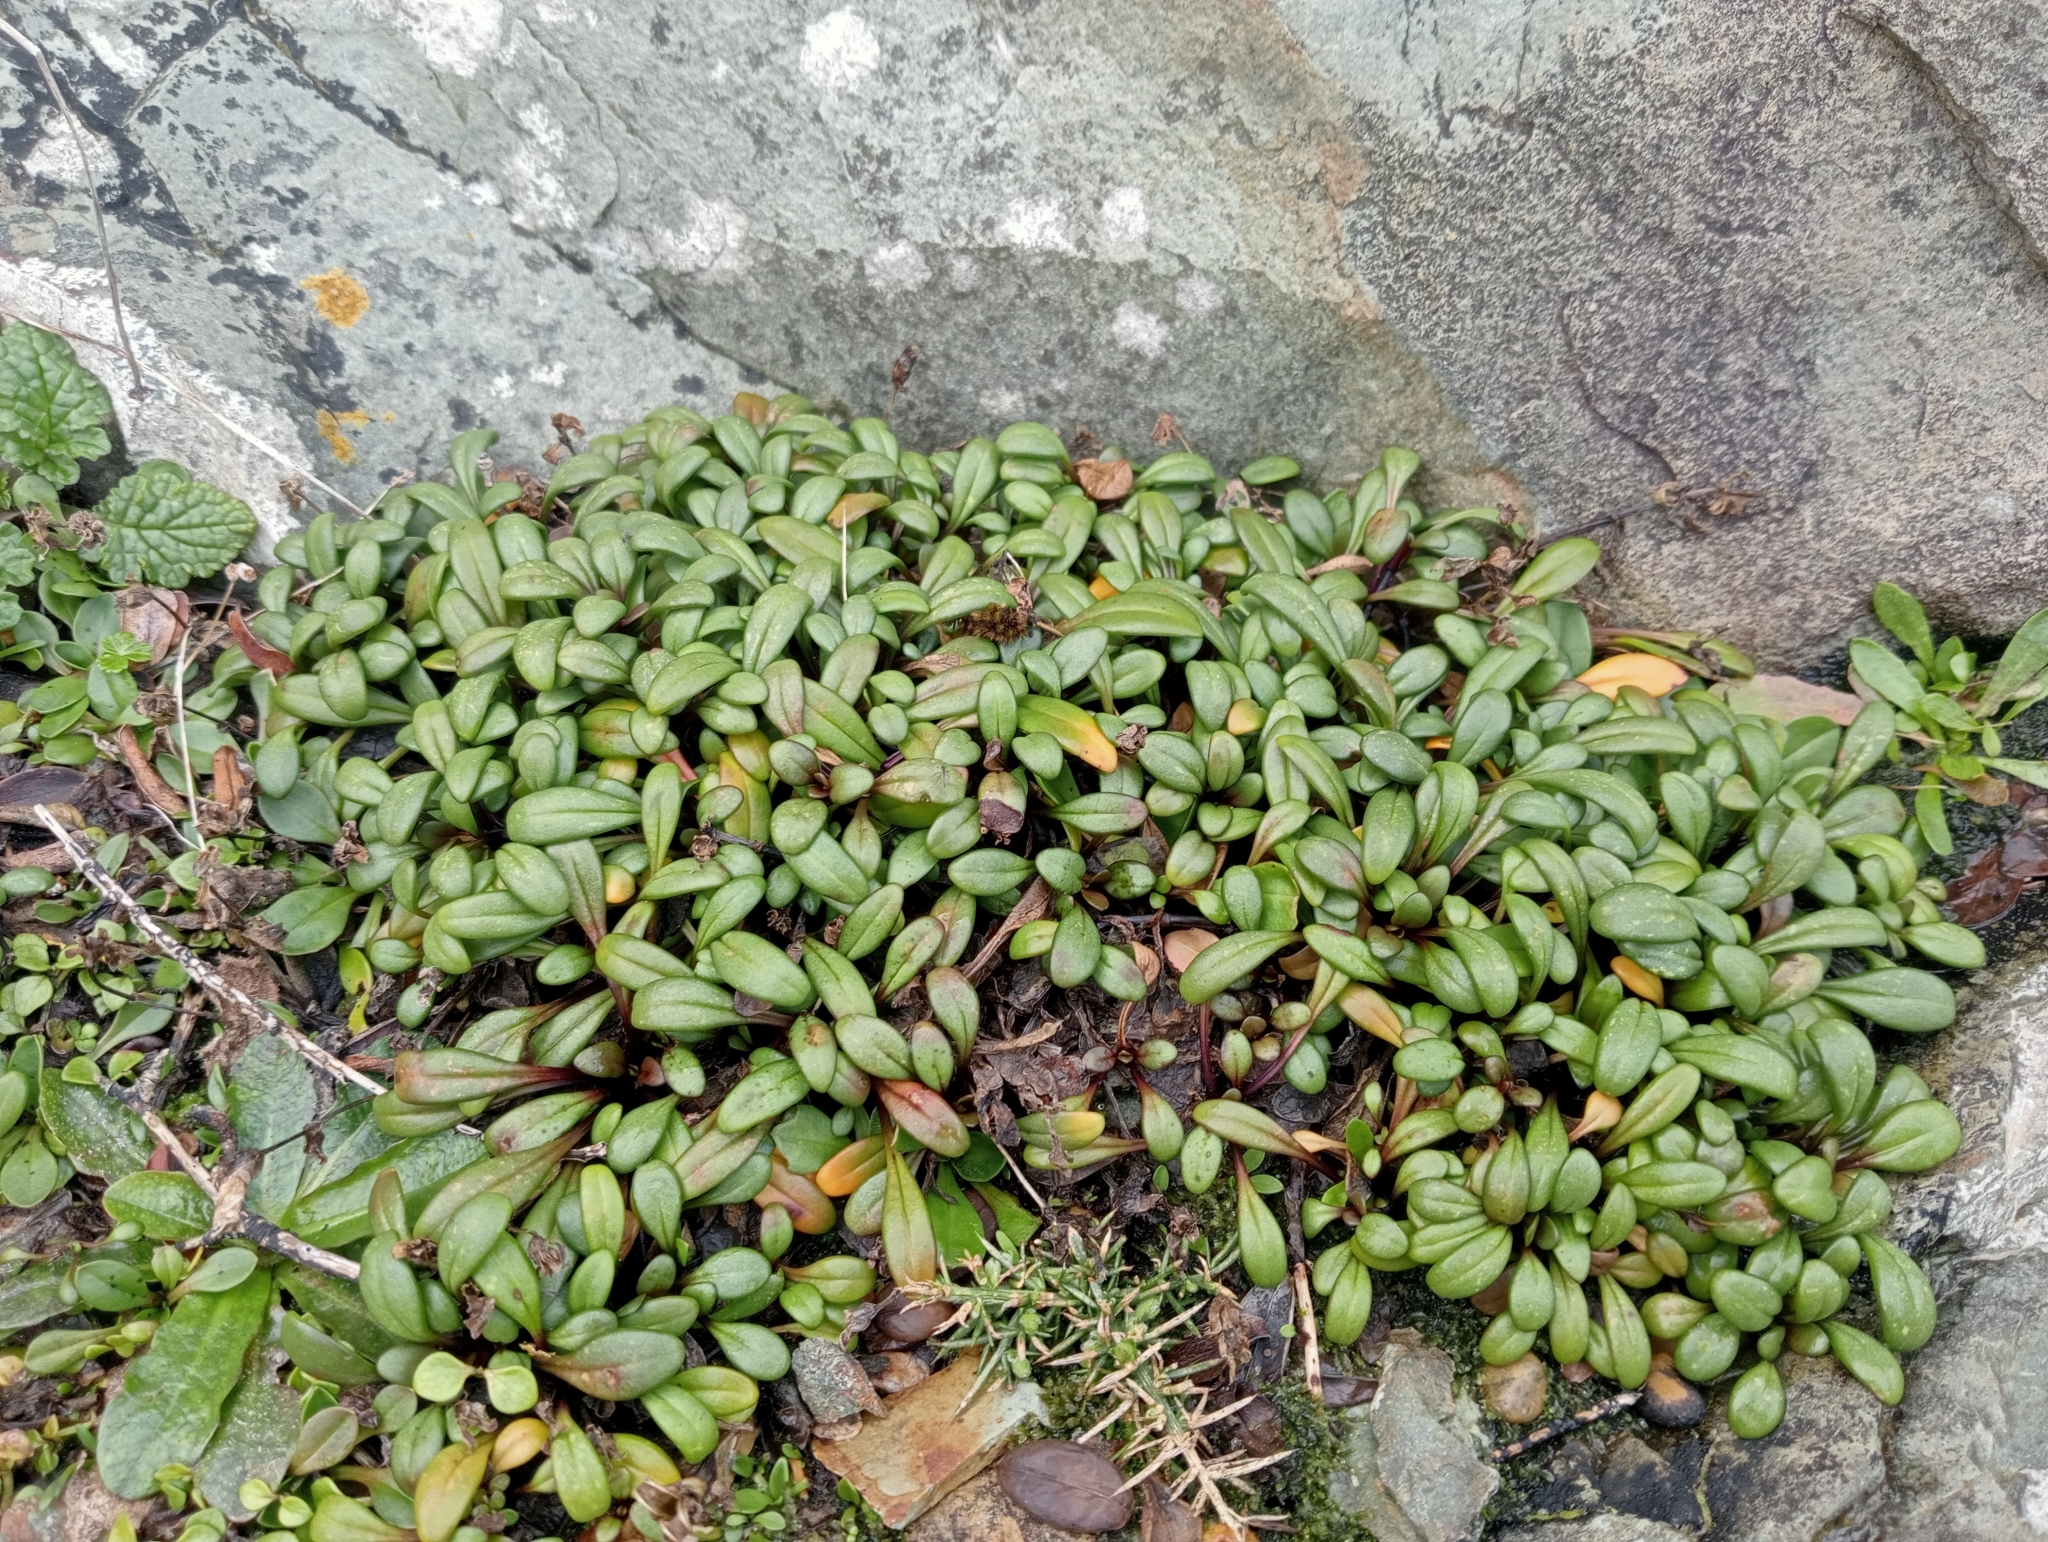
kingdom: Plantae
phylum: Tracheophyta
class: Magnoliopsida
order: Gentianales
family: Gentianaceae
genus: Gentianella
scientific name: Gentianella saxosa
